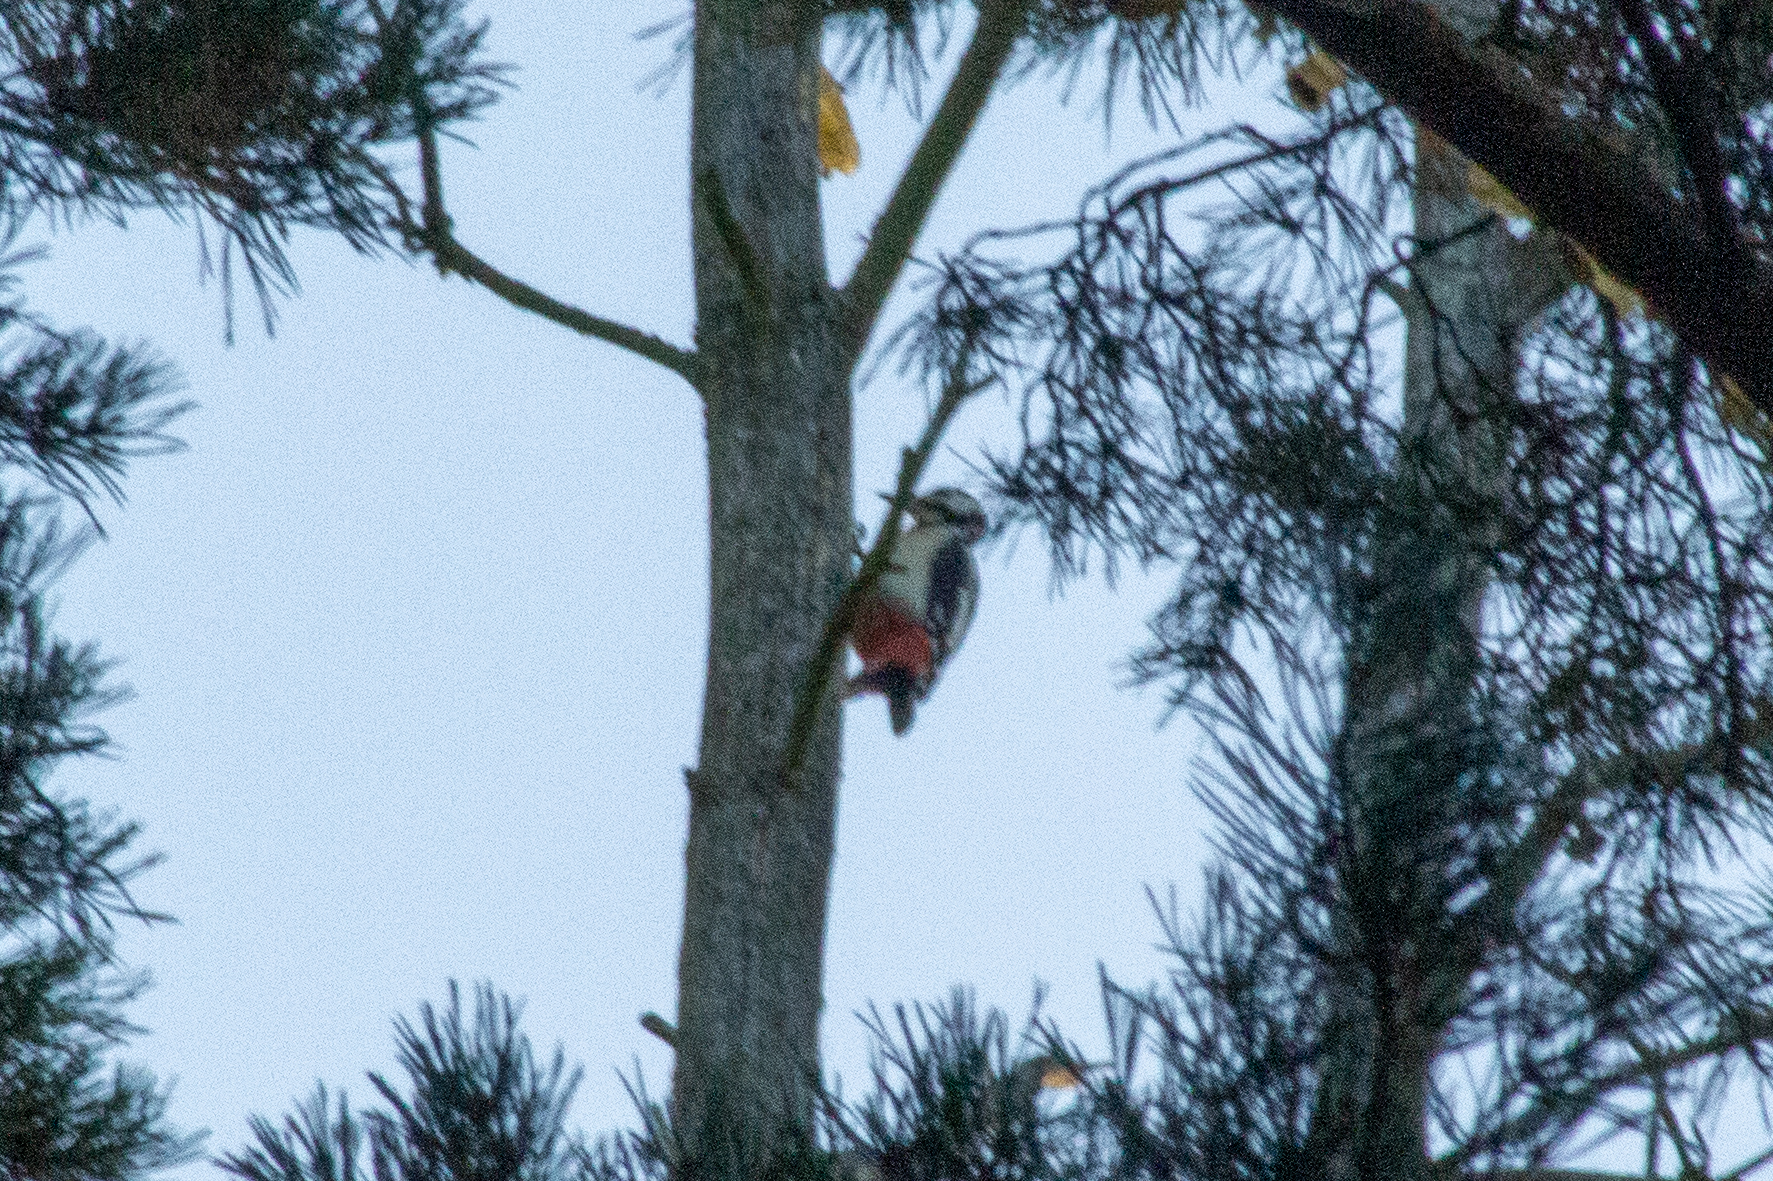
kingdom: Animalia
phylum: Chordata
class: Aves
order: Piciformes
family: Picidae
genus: Dendrocopos
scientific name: Dendrocopos major
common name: Great spotted woodpecker
